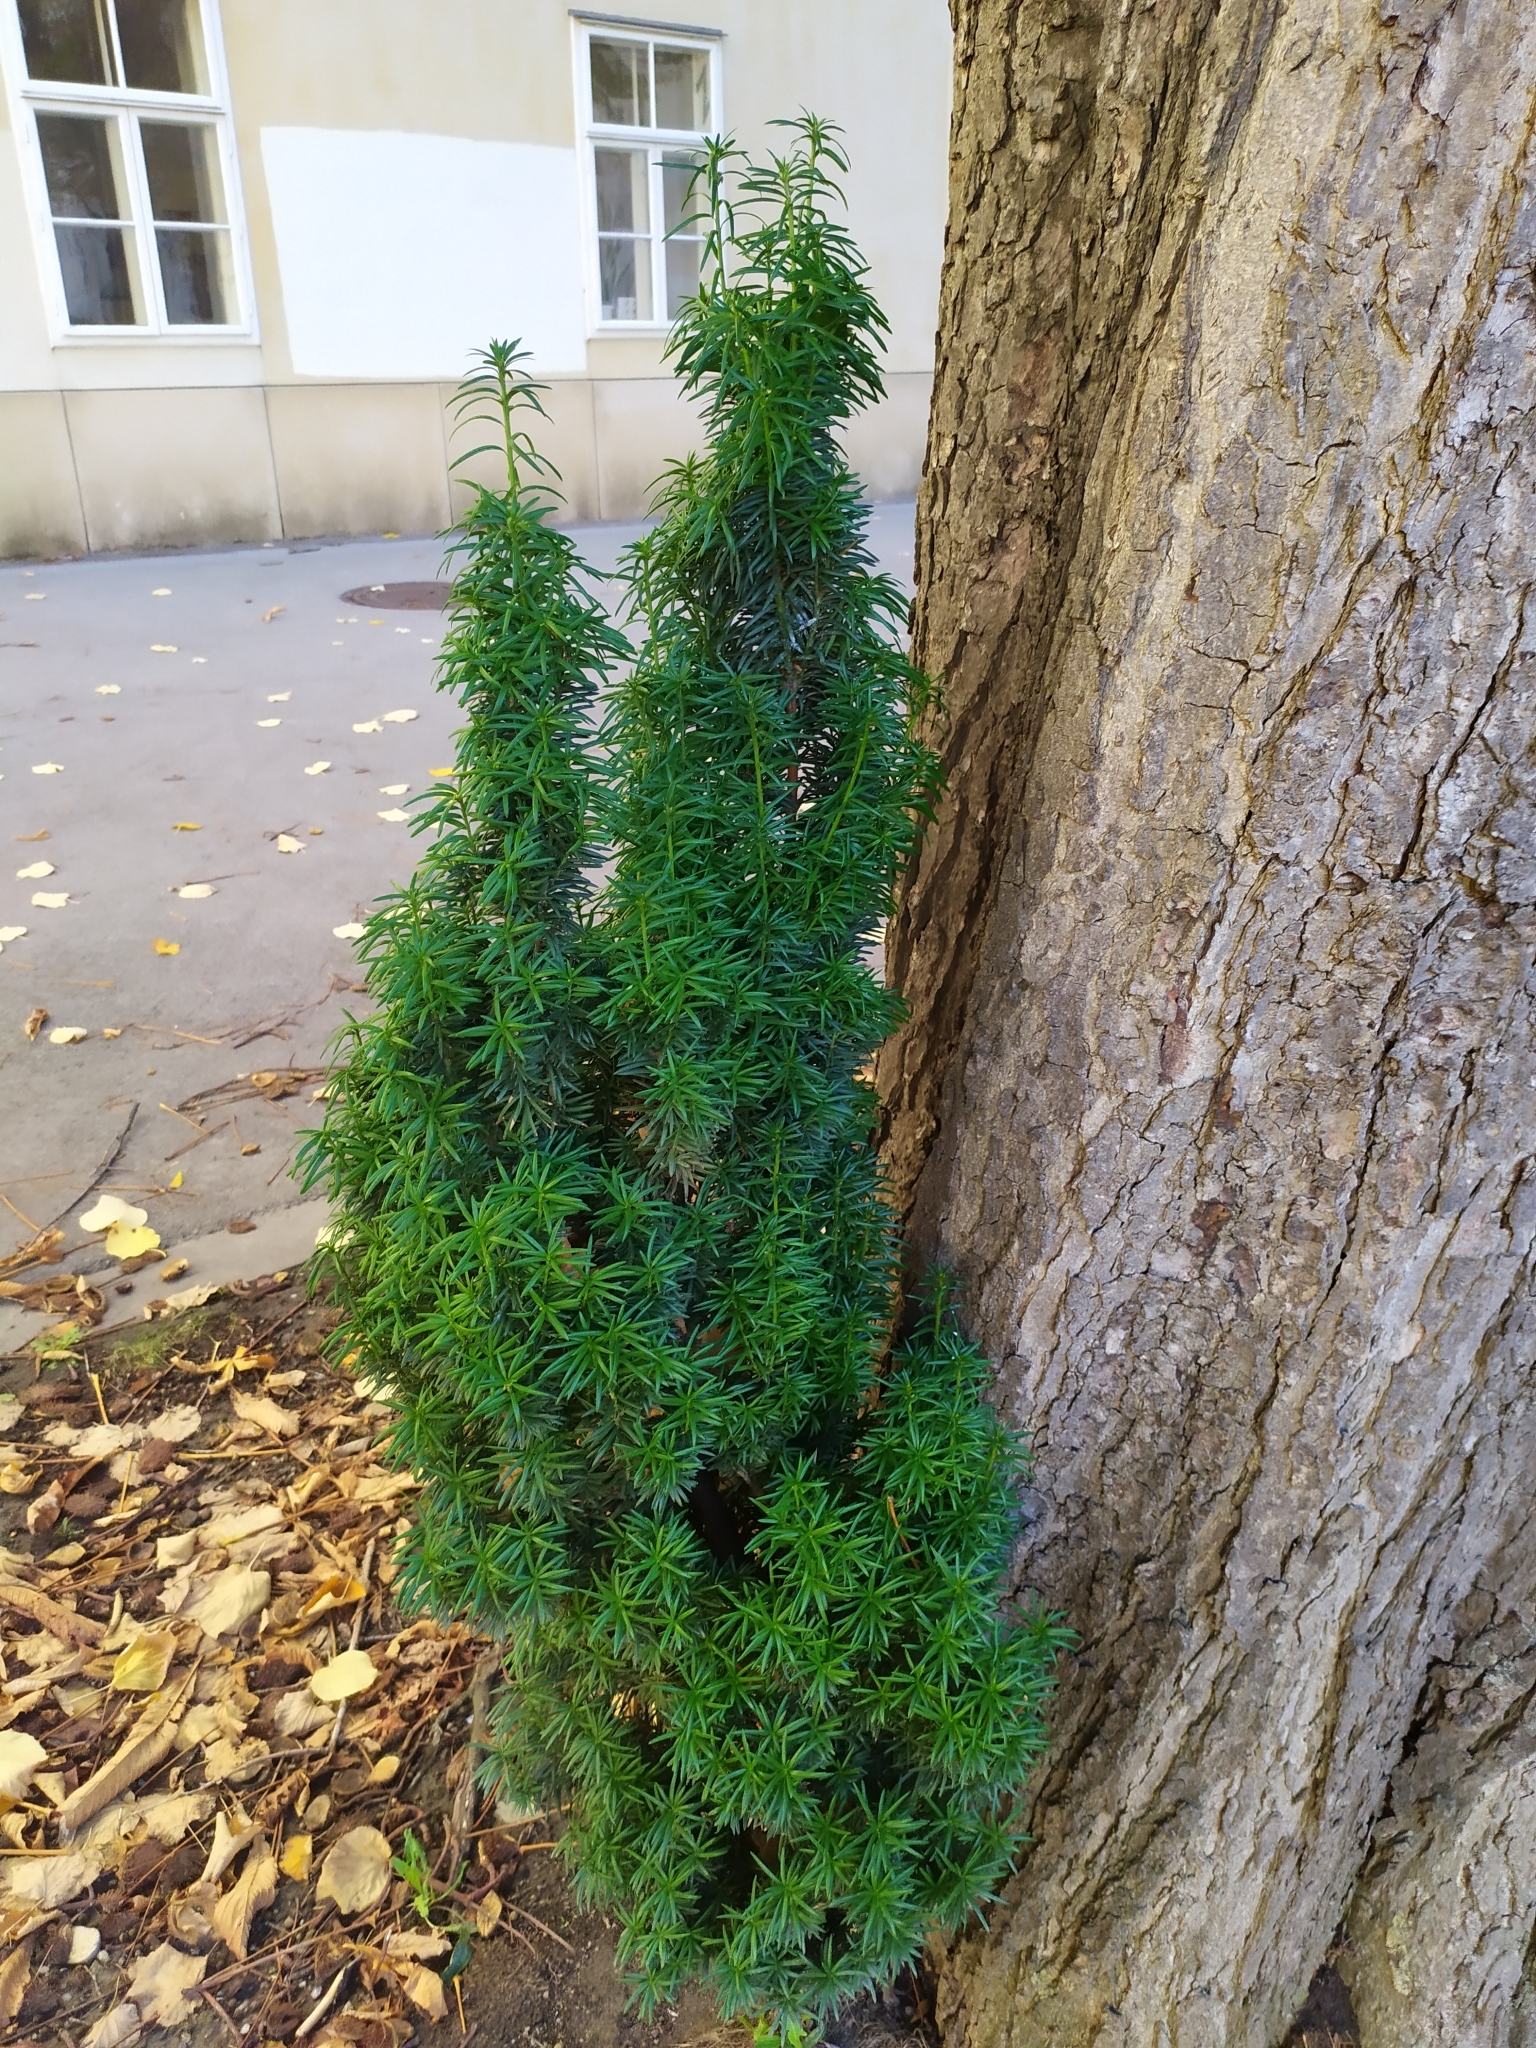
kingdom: Plantae
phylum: Tracheophyta
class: Pinopsida
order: Pinales
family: Taxaceae
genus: Taxus
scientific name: Taxus baccata
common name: Yew
